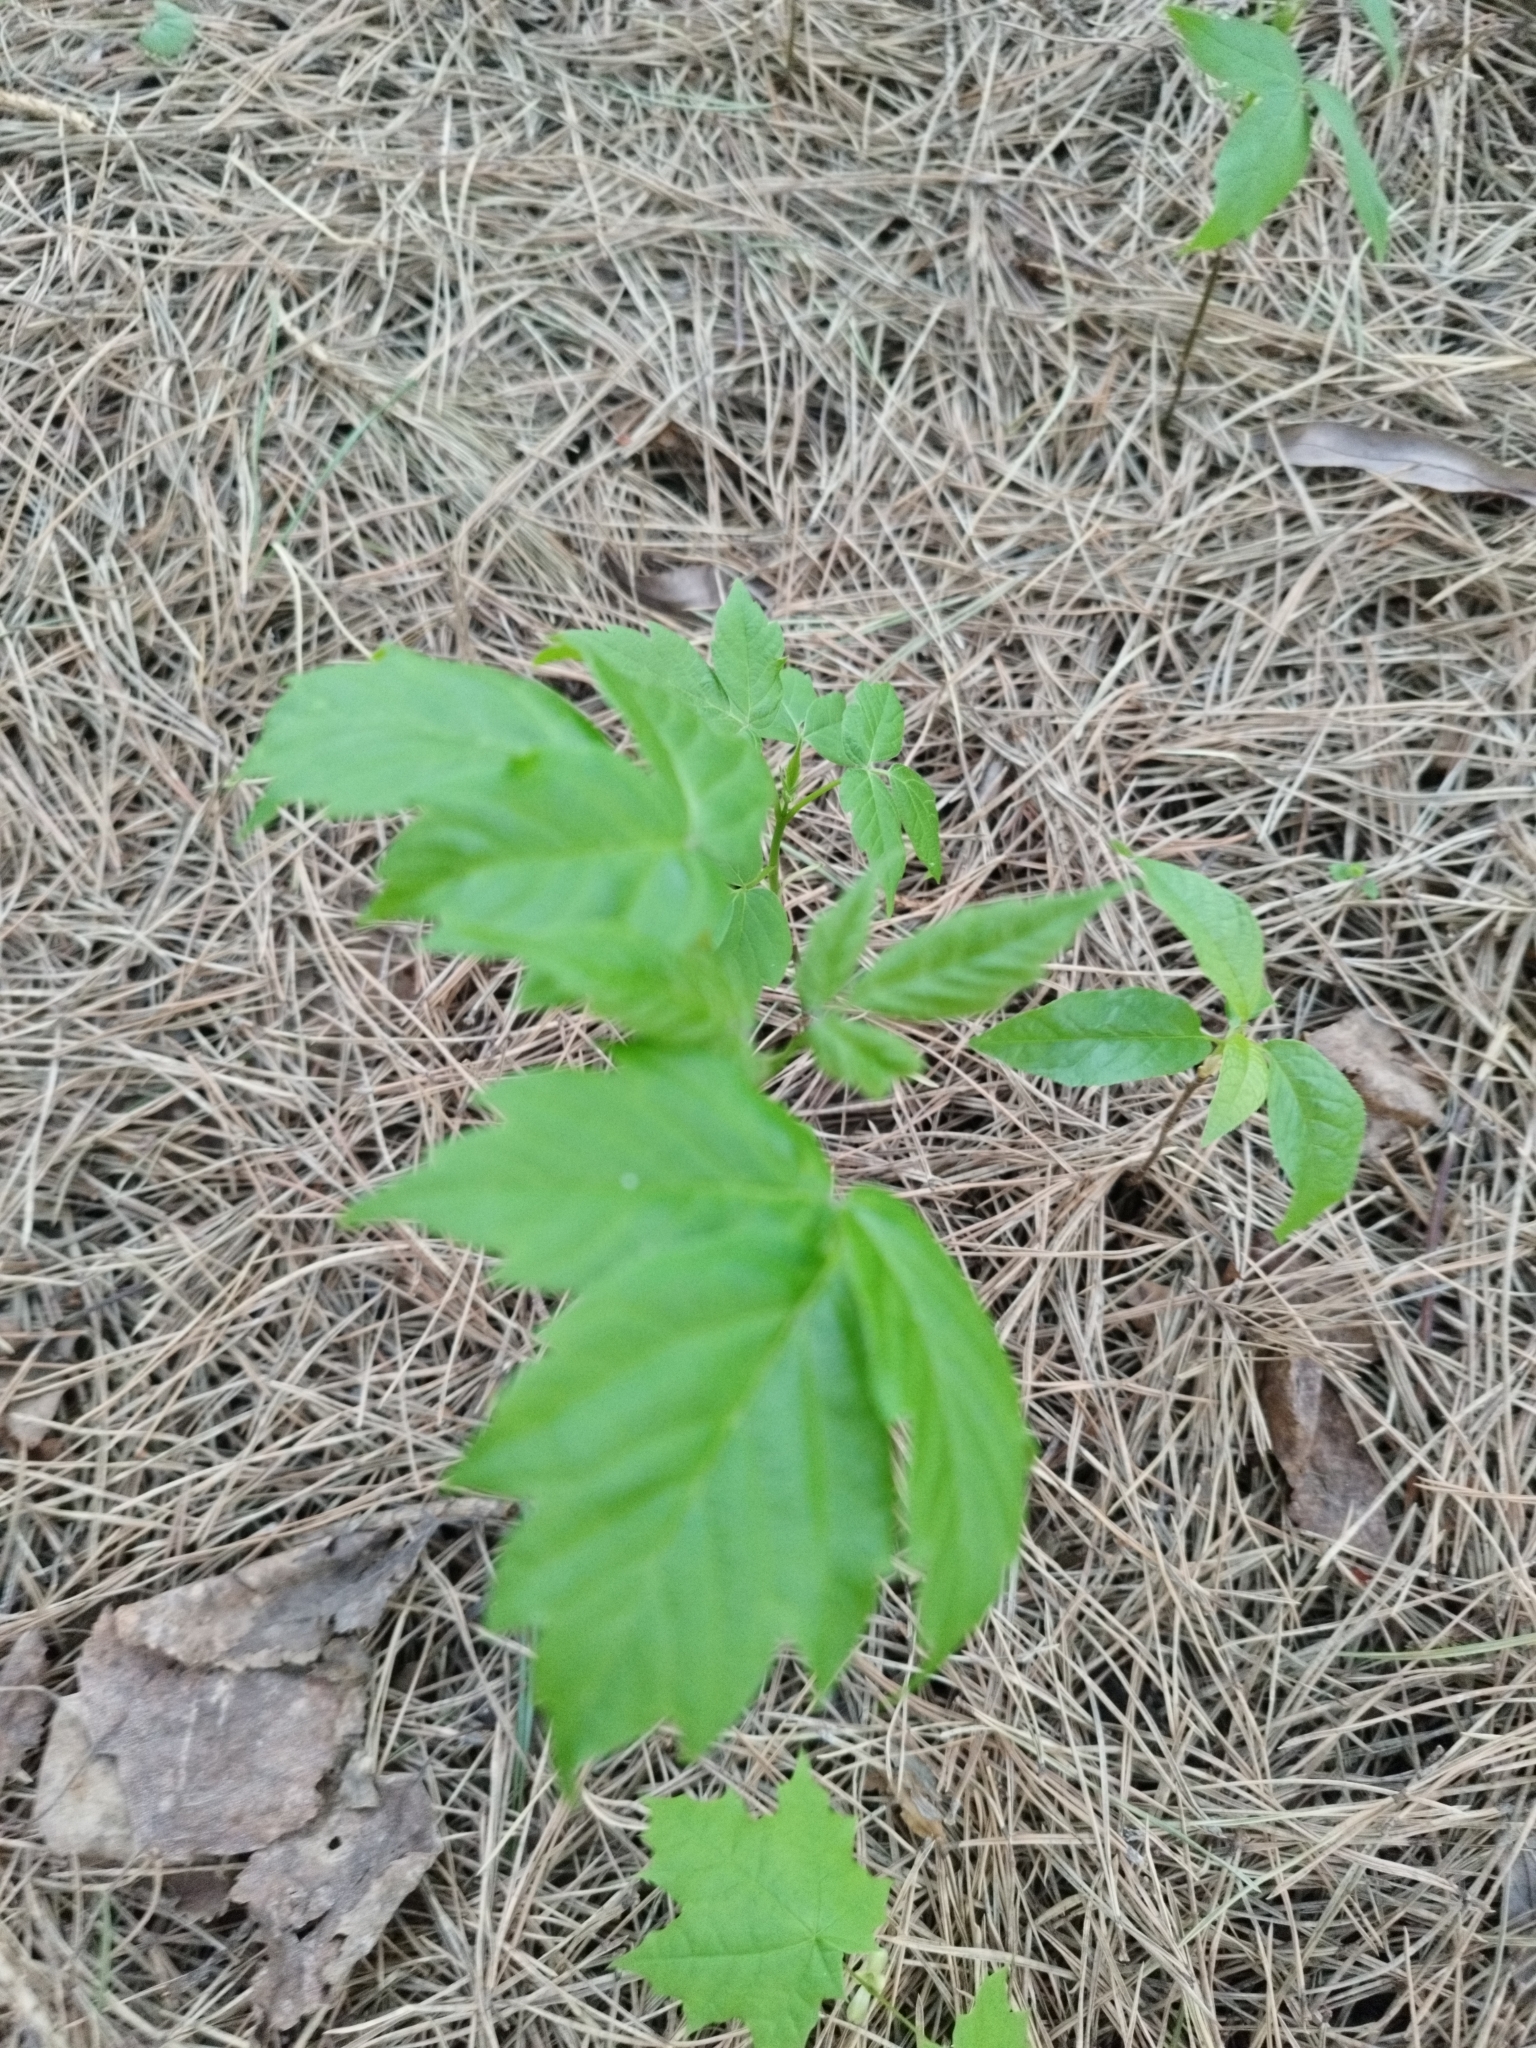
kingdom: Plantae
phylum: Tracheophyta
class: Magnoliopsida
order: Sapindales
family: Sapindaceae
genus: Acer
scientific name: Acer negundo
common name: Ashleaf maple
